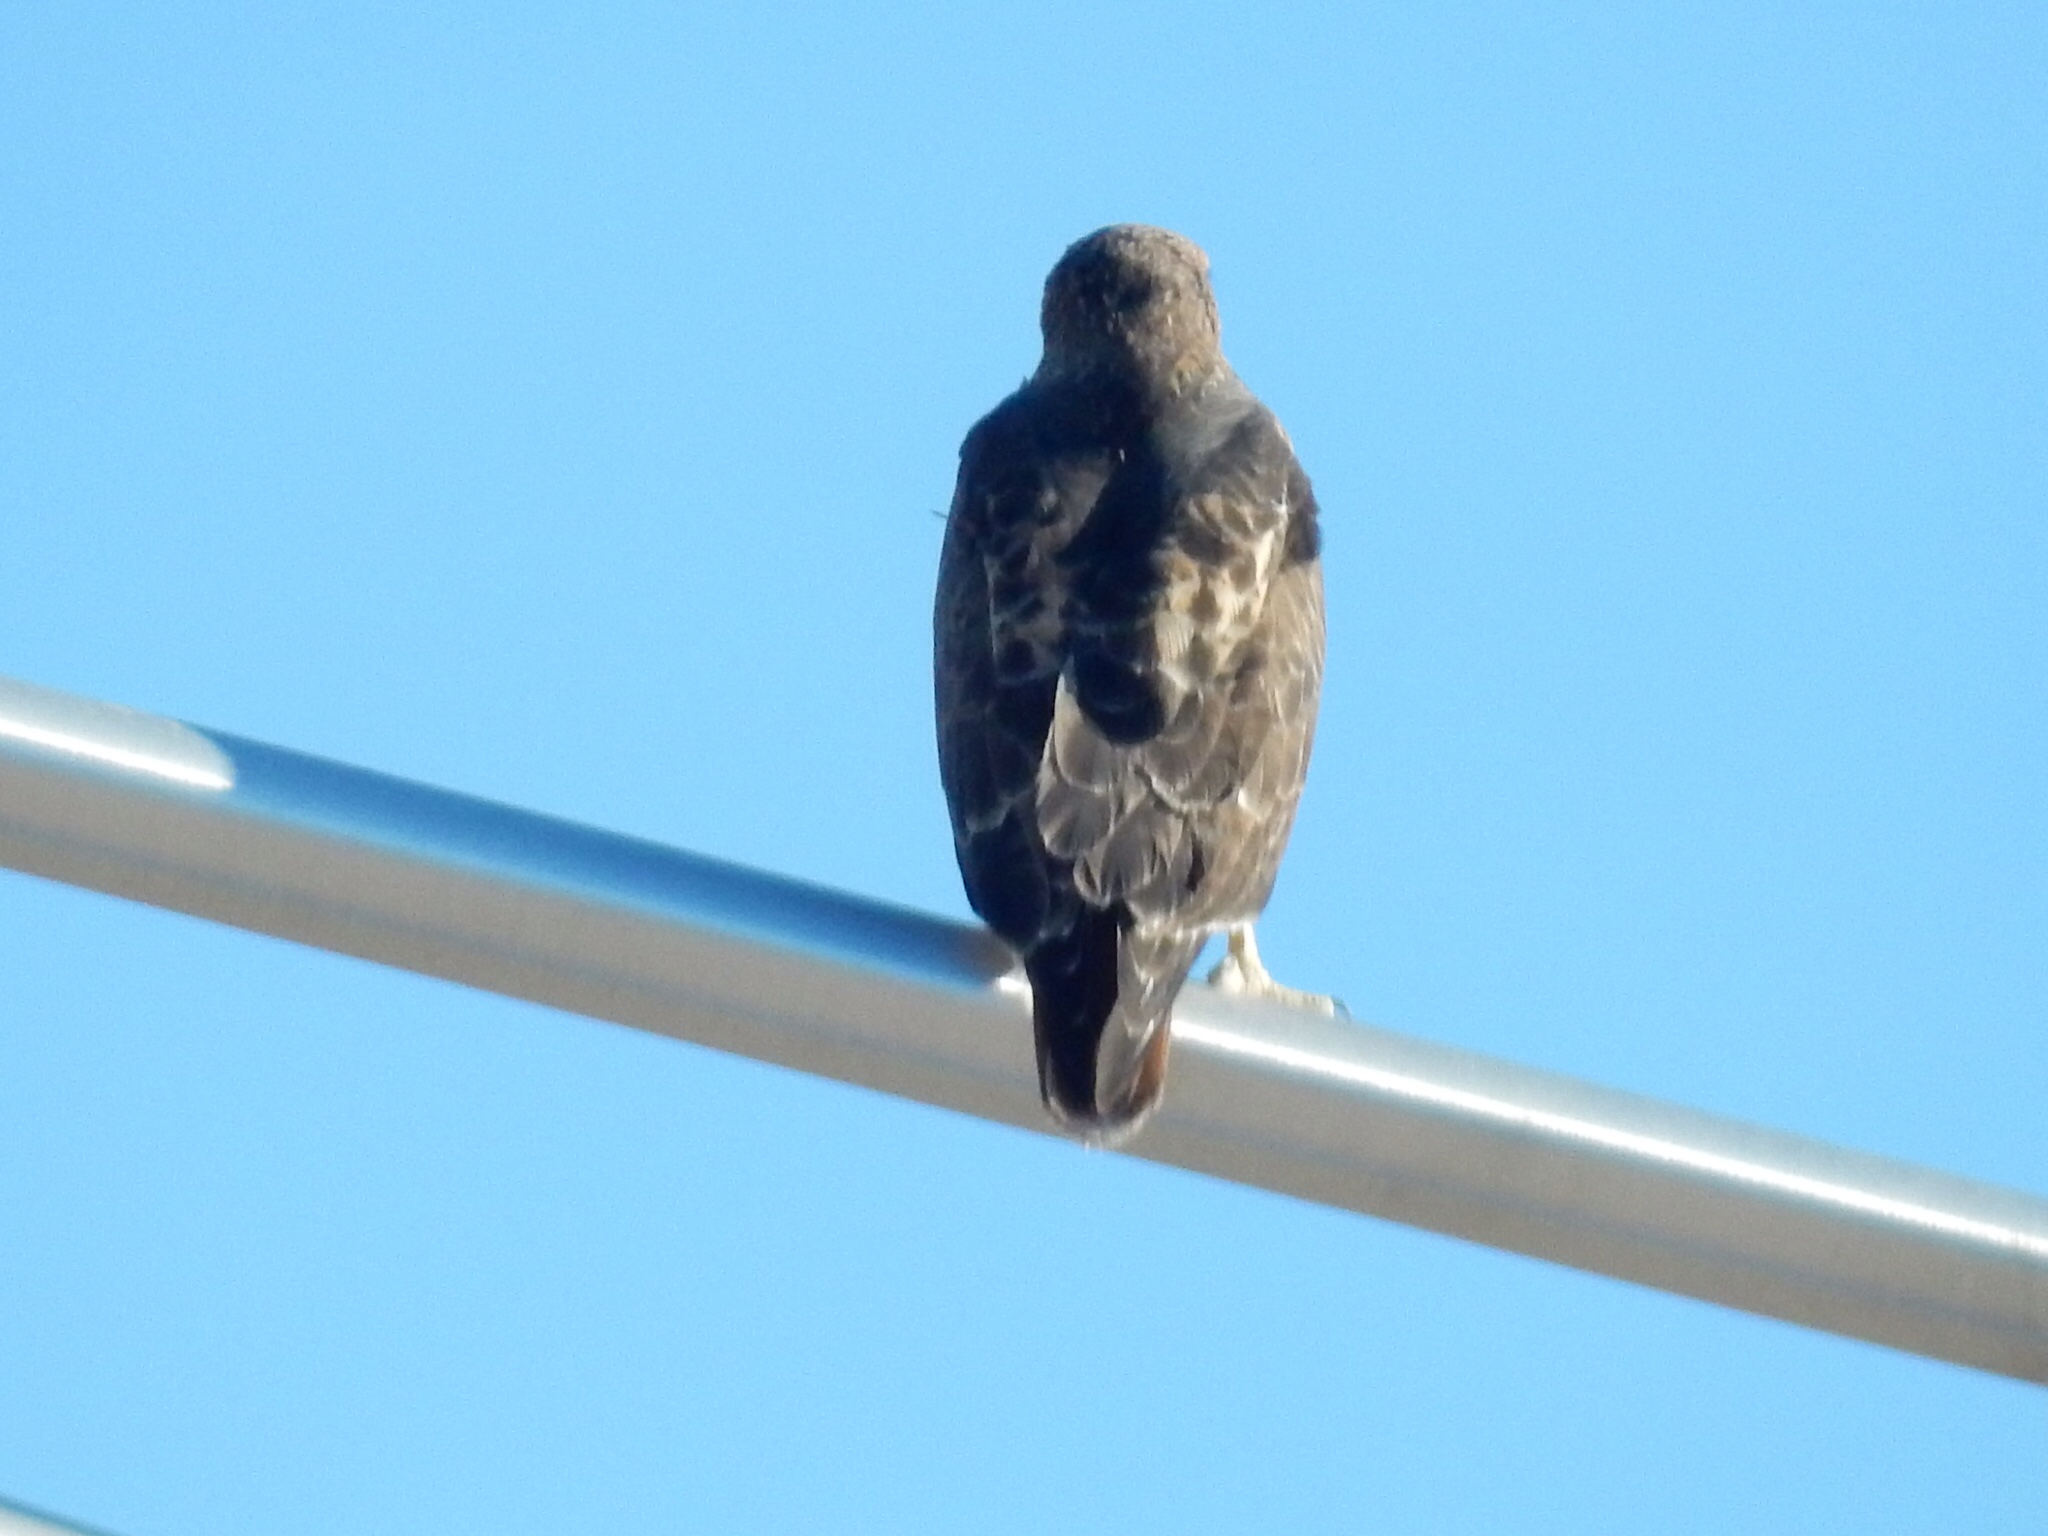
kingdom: Animalia
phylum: Chordata
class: Aves
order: Accipitriformes
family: Accipitridae
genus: Buteo
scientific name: Buteo jamaicensis
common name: Red-tailed hawk
